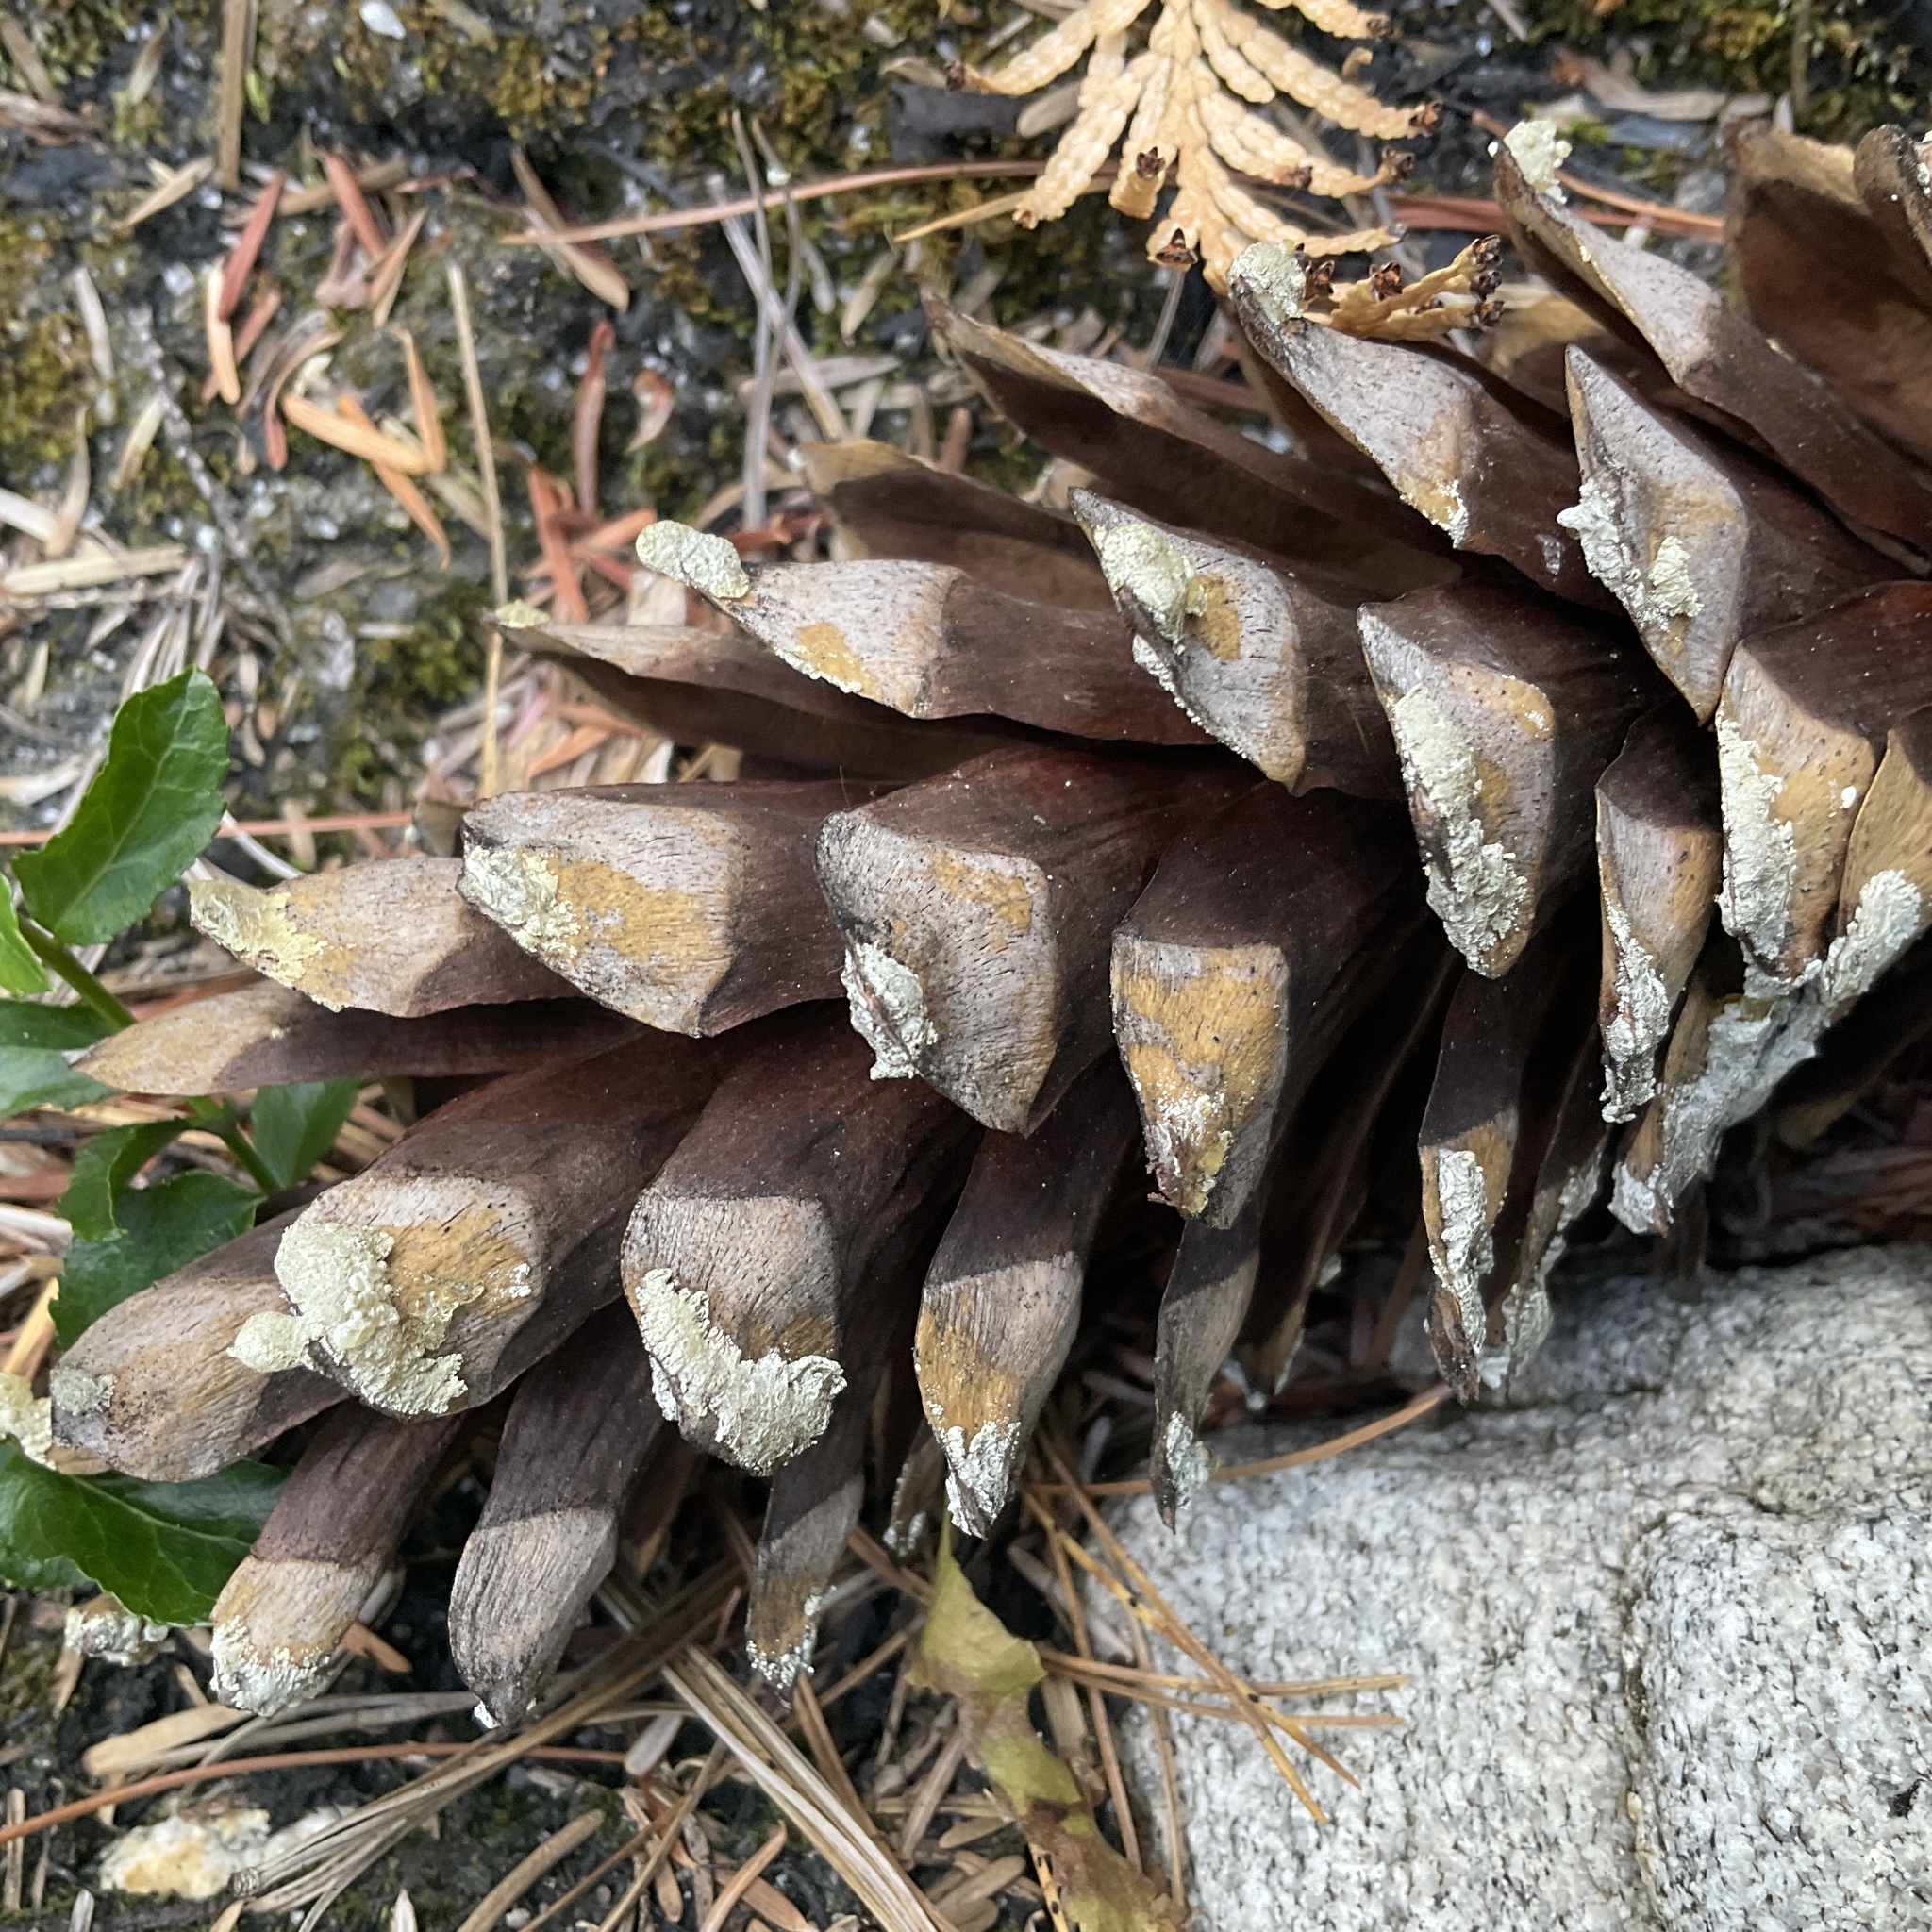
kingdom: Plantae
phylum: Tracheophyta
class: Pinopsida
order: Pinales
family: Pinaceae
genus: Pinus
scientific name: Pinus monticola
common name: Western white pine
